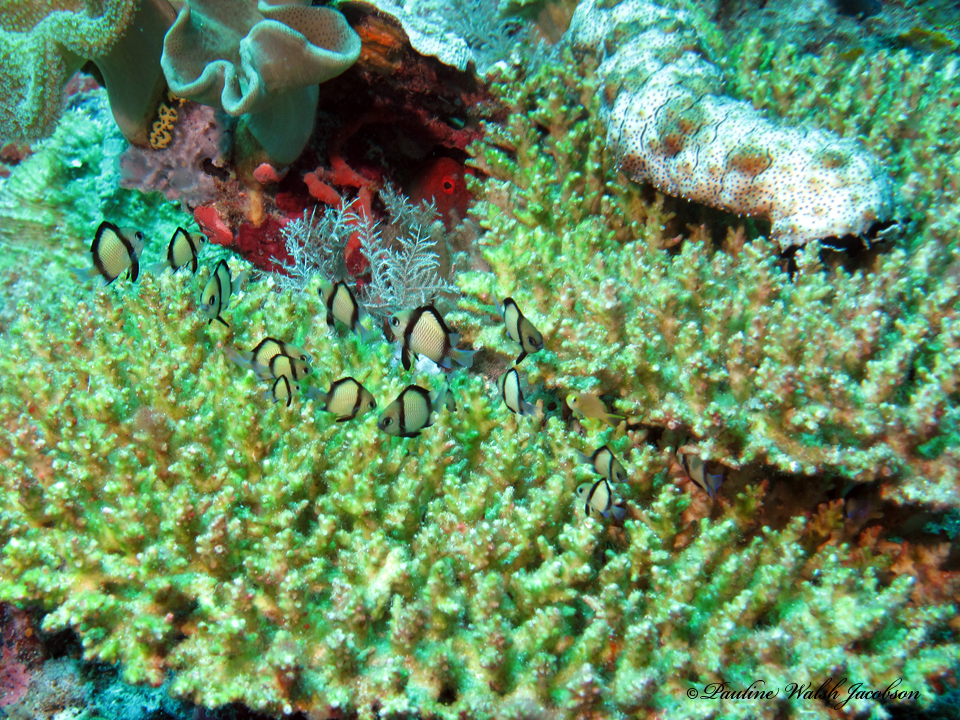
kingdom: Animalia
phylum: Chordata
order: Perciformes
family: Pomacentridae
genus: Dascyllus
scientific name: Dascyllus reticulatus
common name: Reticulated dascyllus
